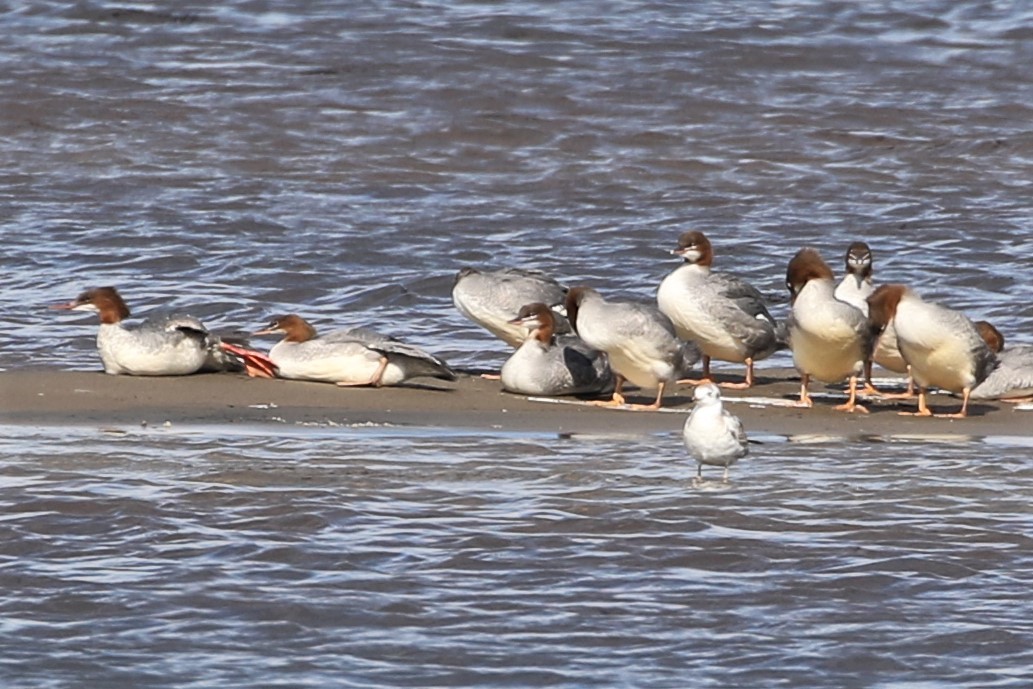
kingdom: Animalia
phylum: Chordata
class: Aves
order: Anseriformes
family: Anatidae
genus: Mergus
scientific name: Mergus merganser
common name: Common merganser
